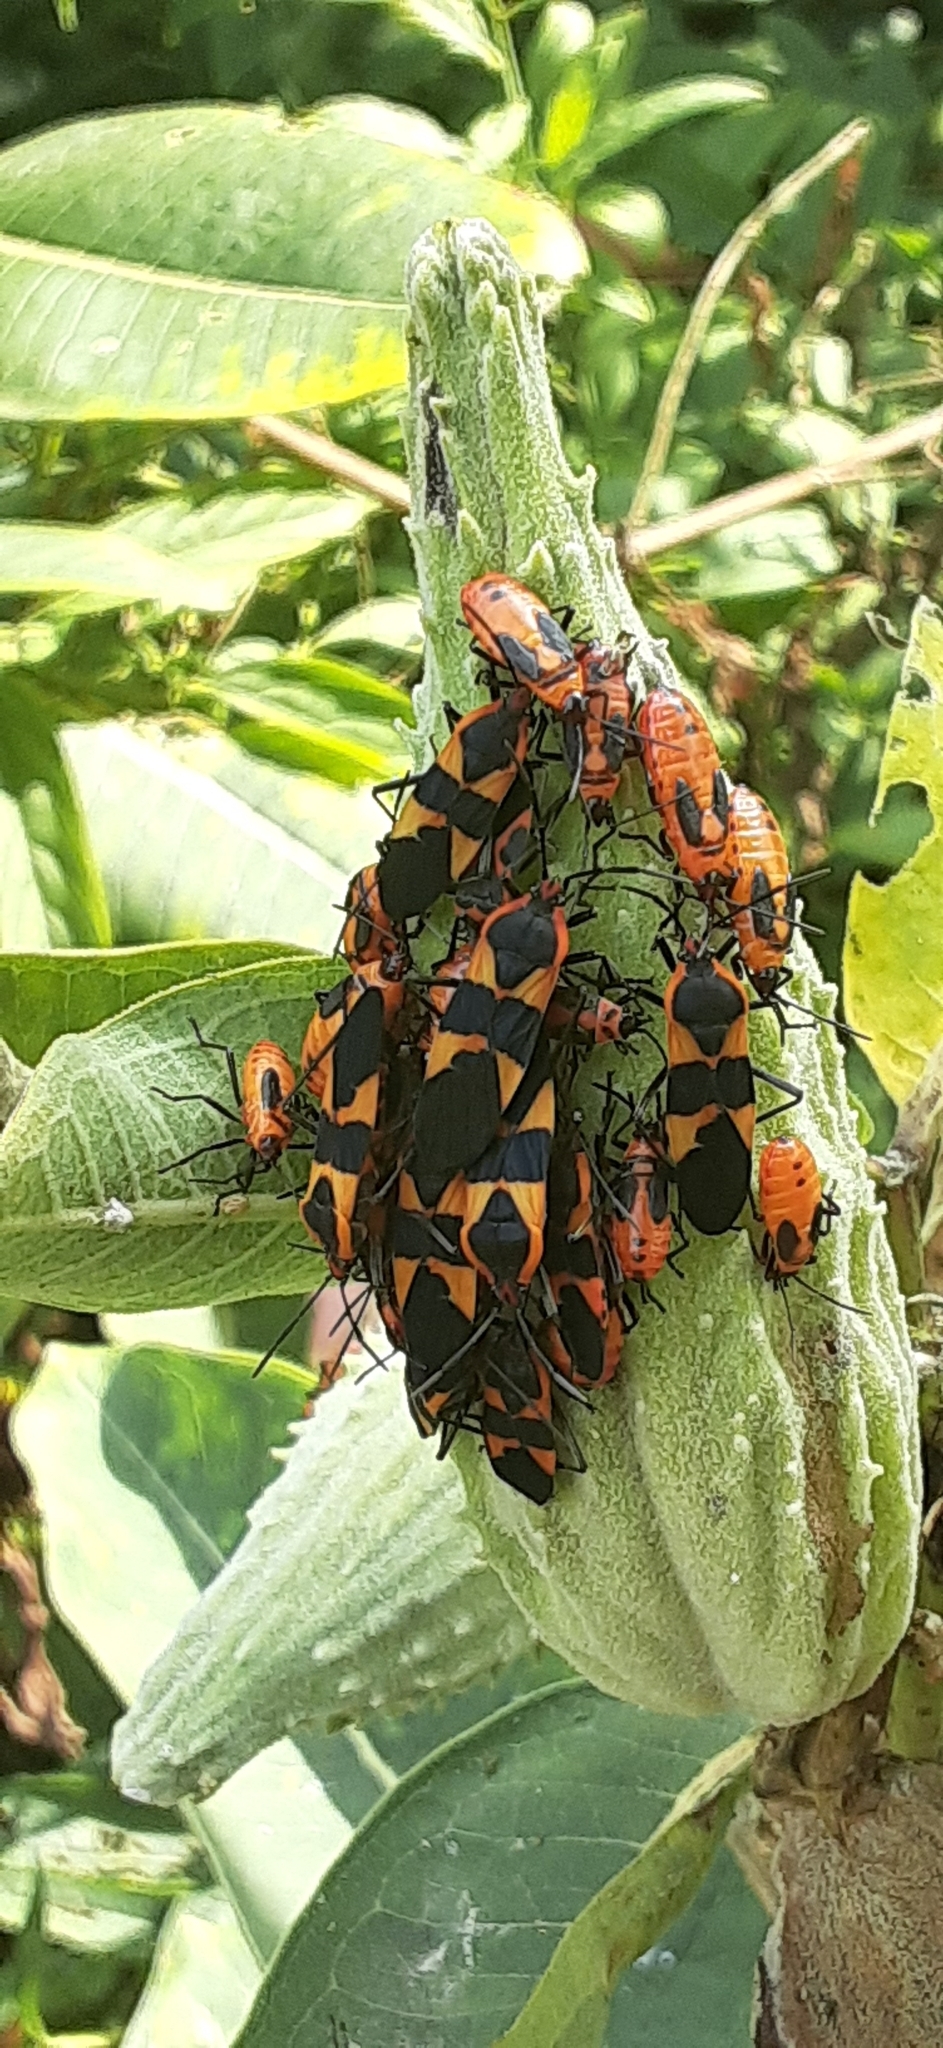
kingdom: Animalia
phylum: Arthropoda
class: Insecta
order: Hemiptera
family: Lygaeidae
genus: Oncopeltus
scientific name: Oncopeltus fasciatus
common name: Large milkweed bug
